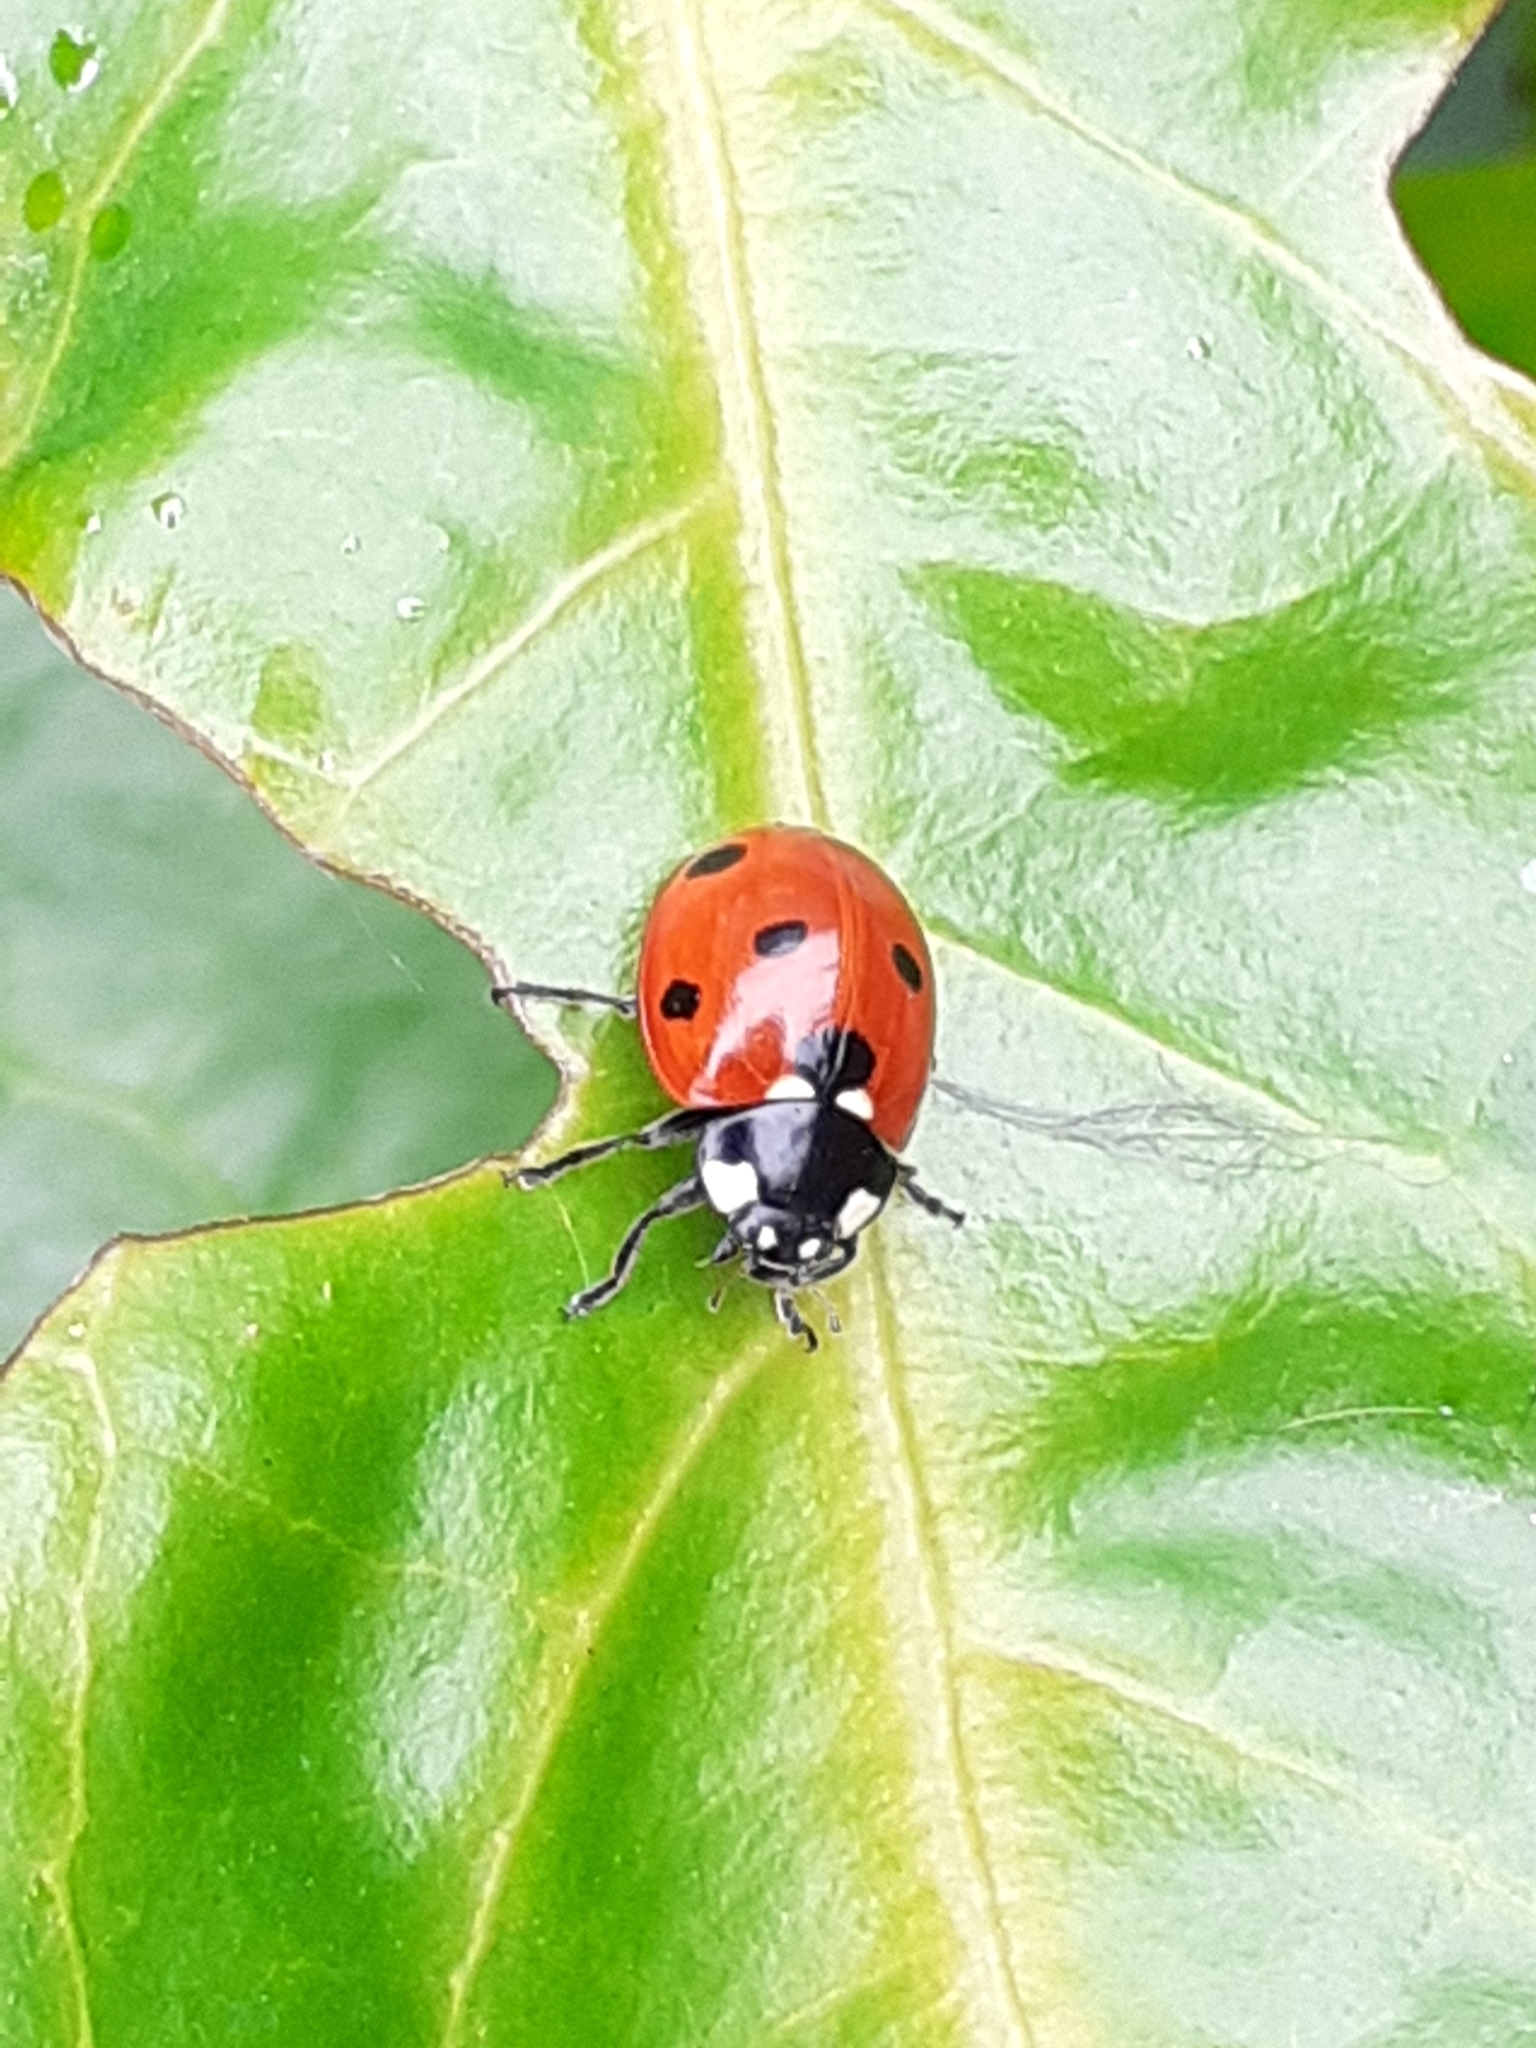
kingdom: Animalia
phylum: Arthropoda
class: Insecta
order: Coleoptera
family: Coccinellidae
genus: Coccinella
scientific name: Coccinella septempunctata
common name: Sevenspotted lady beetle
